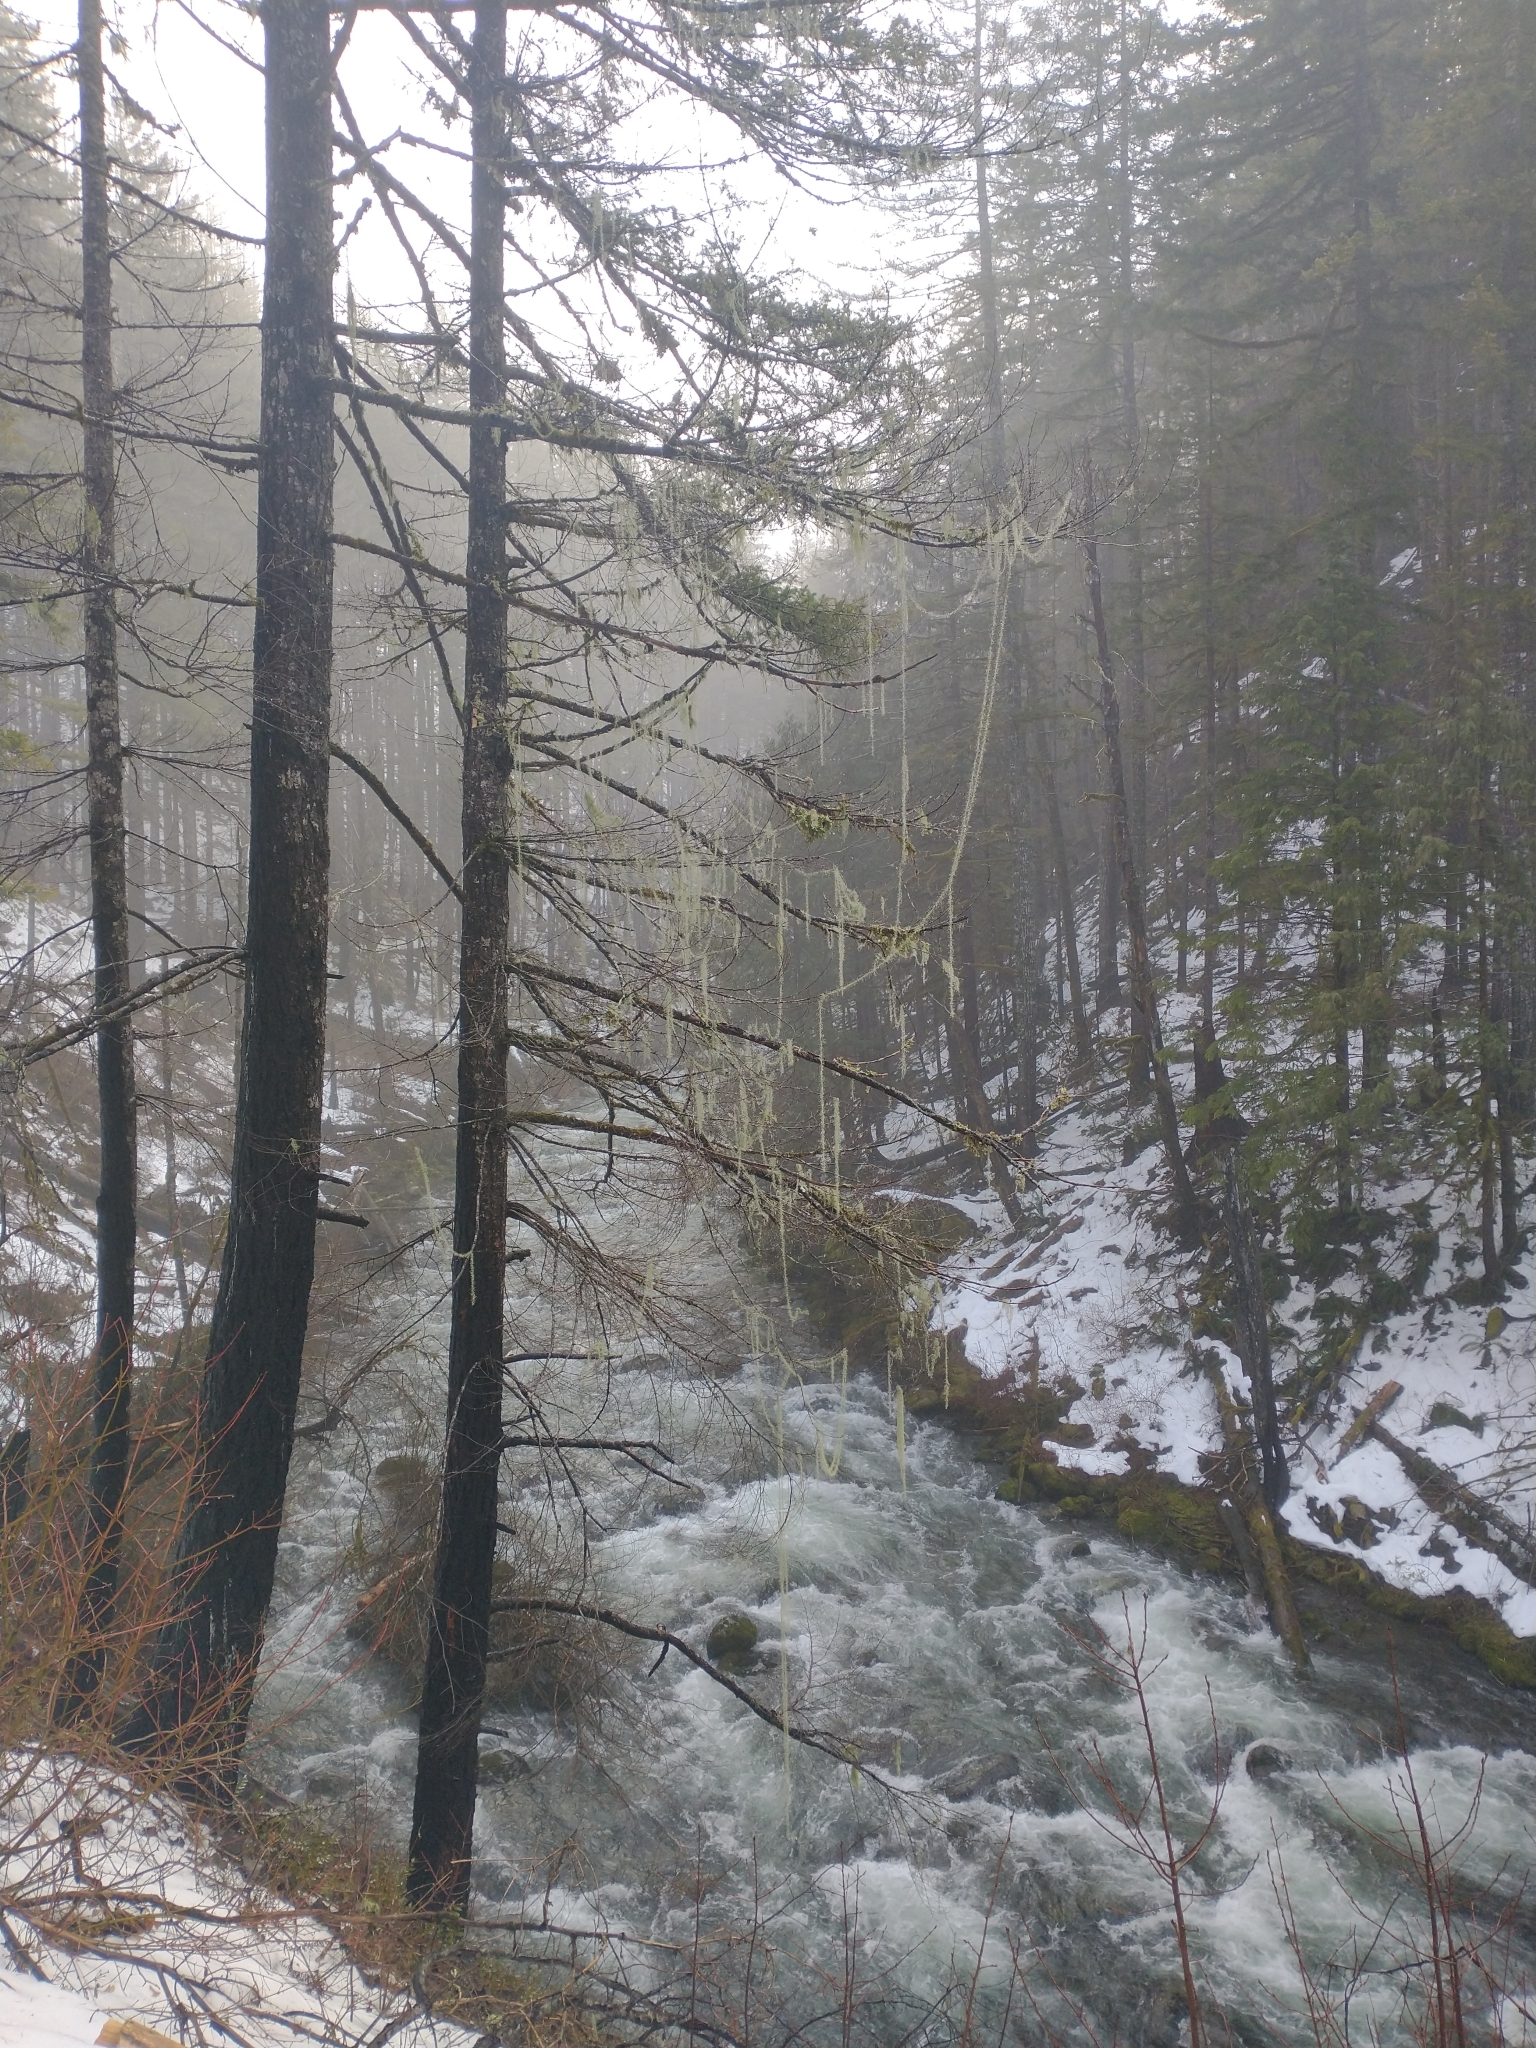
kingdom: Fungi
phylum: Ascomycota
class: Lecanoromycetes
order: Lecanorales
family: Parmeliaceae
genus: Dolichousnea
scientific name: Dolichousnea longissima
